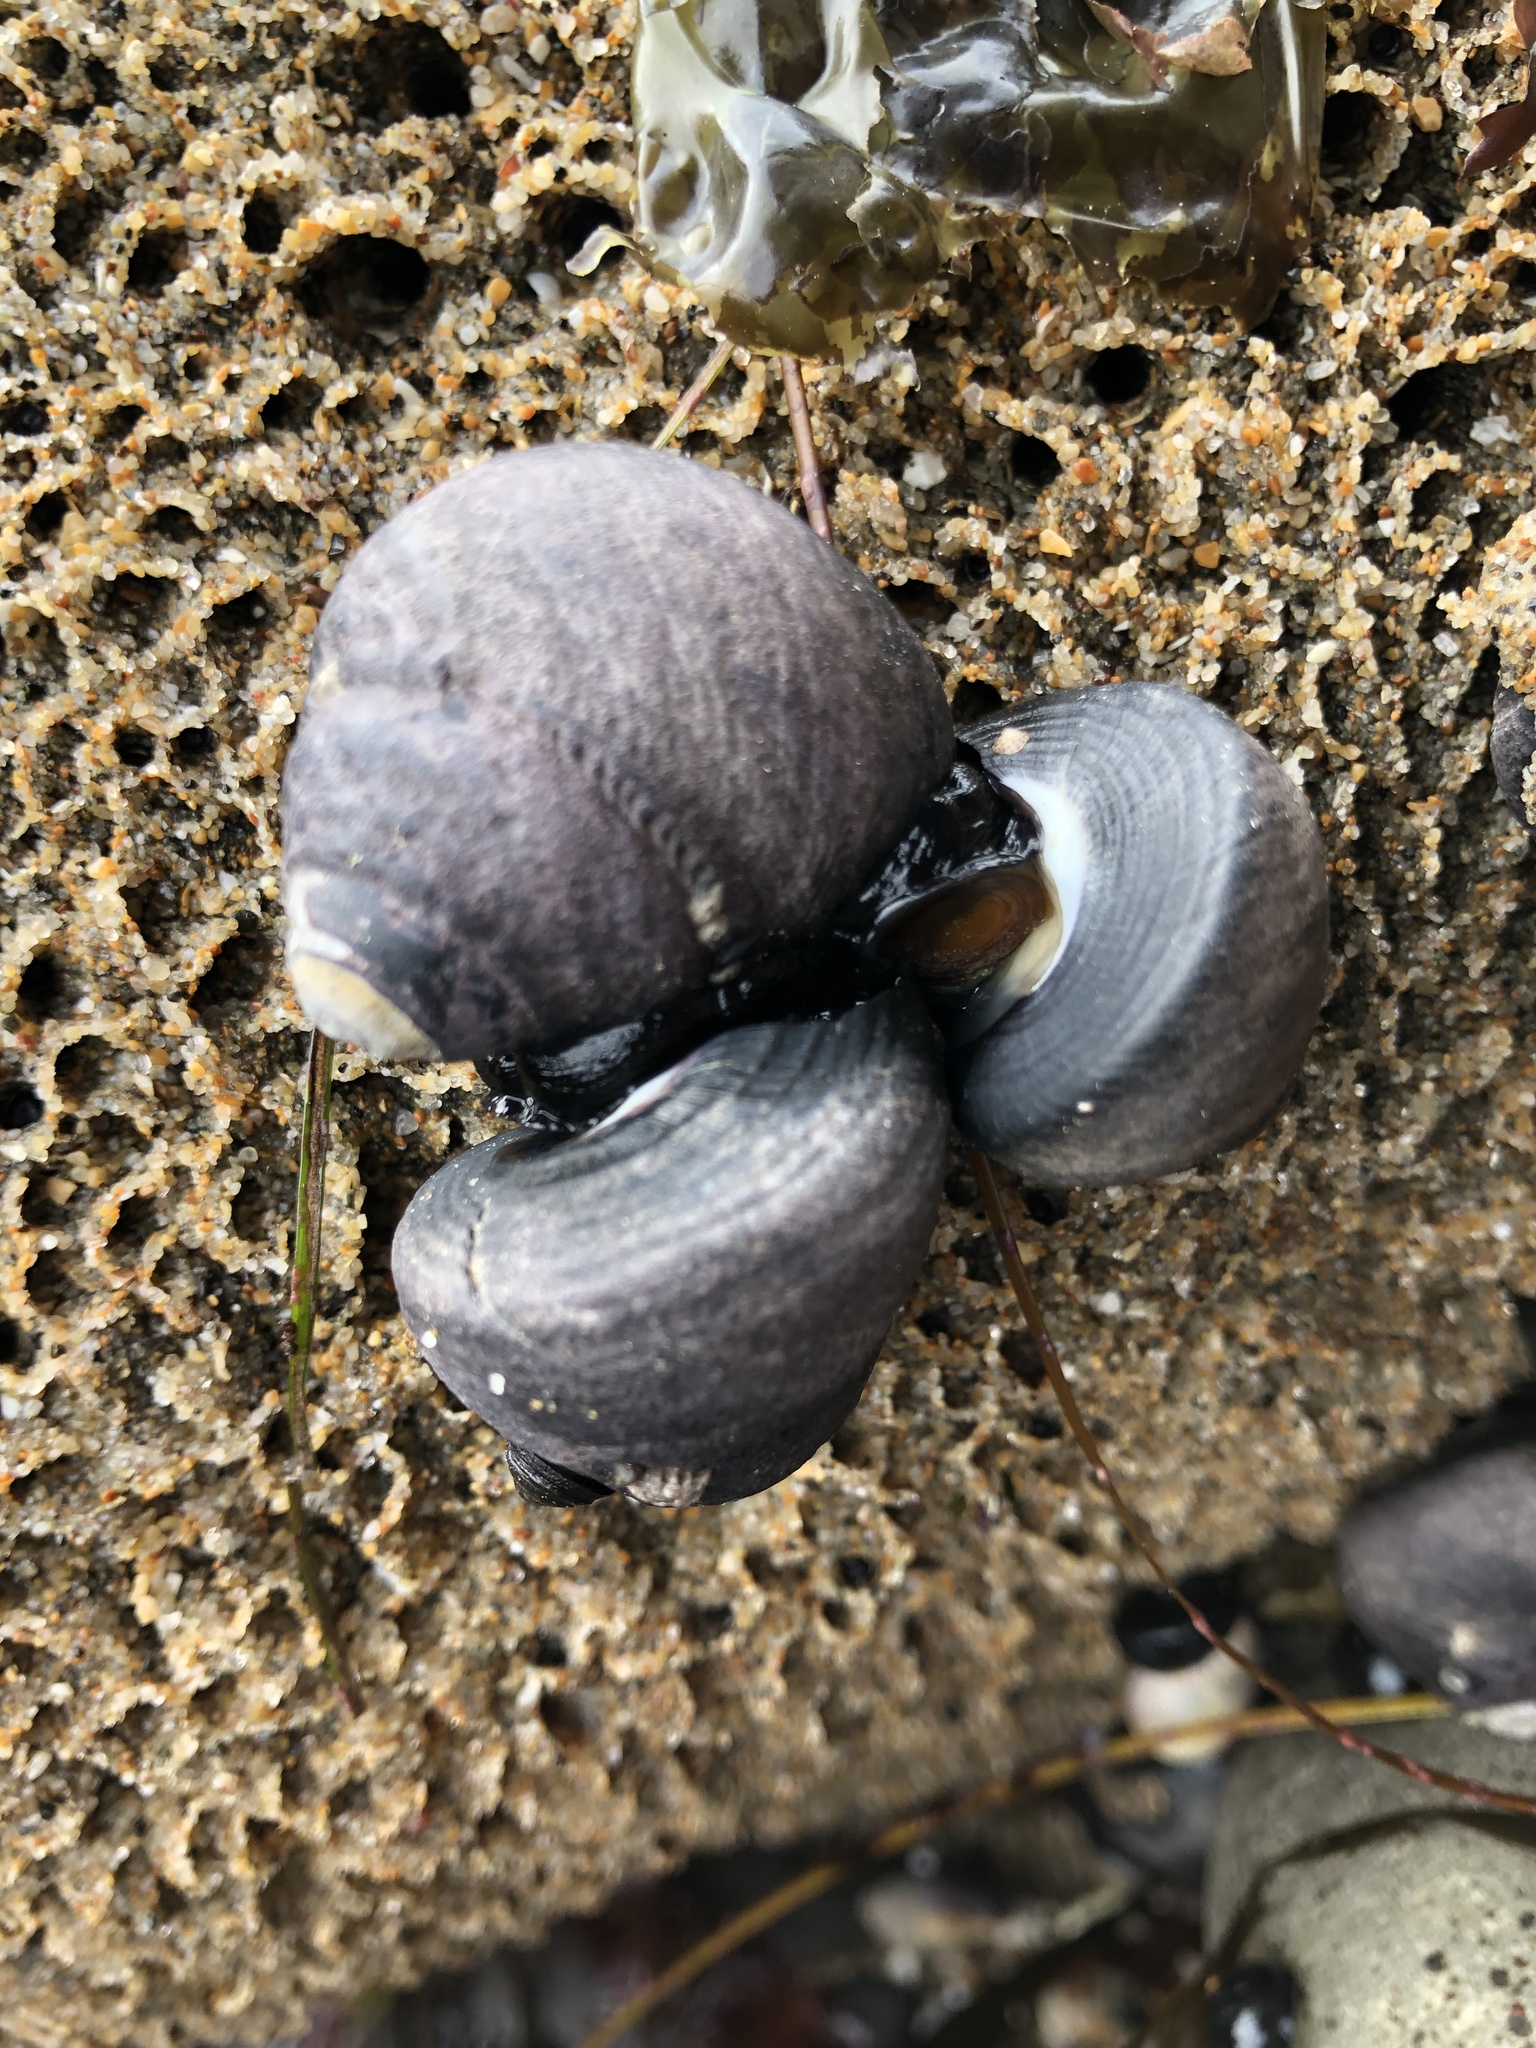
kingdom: Animalia
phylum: Mollusca
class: Gastropoda
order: Trochida
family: Tegulidae
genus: Tegula
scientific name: Tegula funebralis
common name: Black tegula
